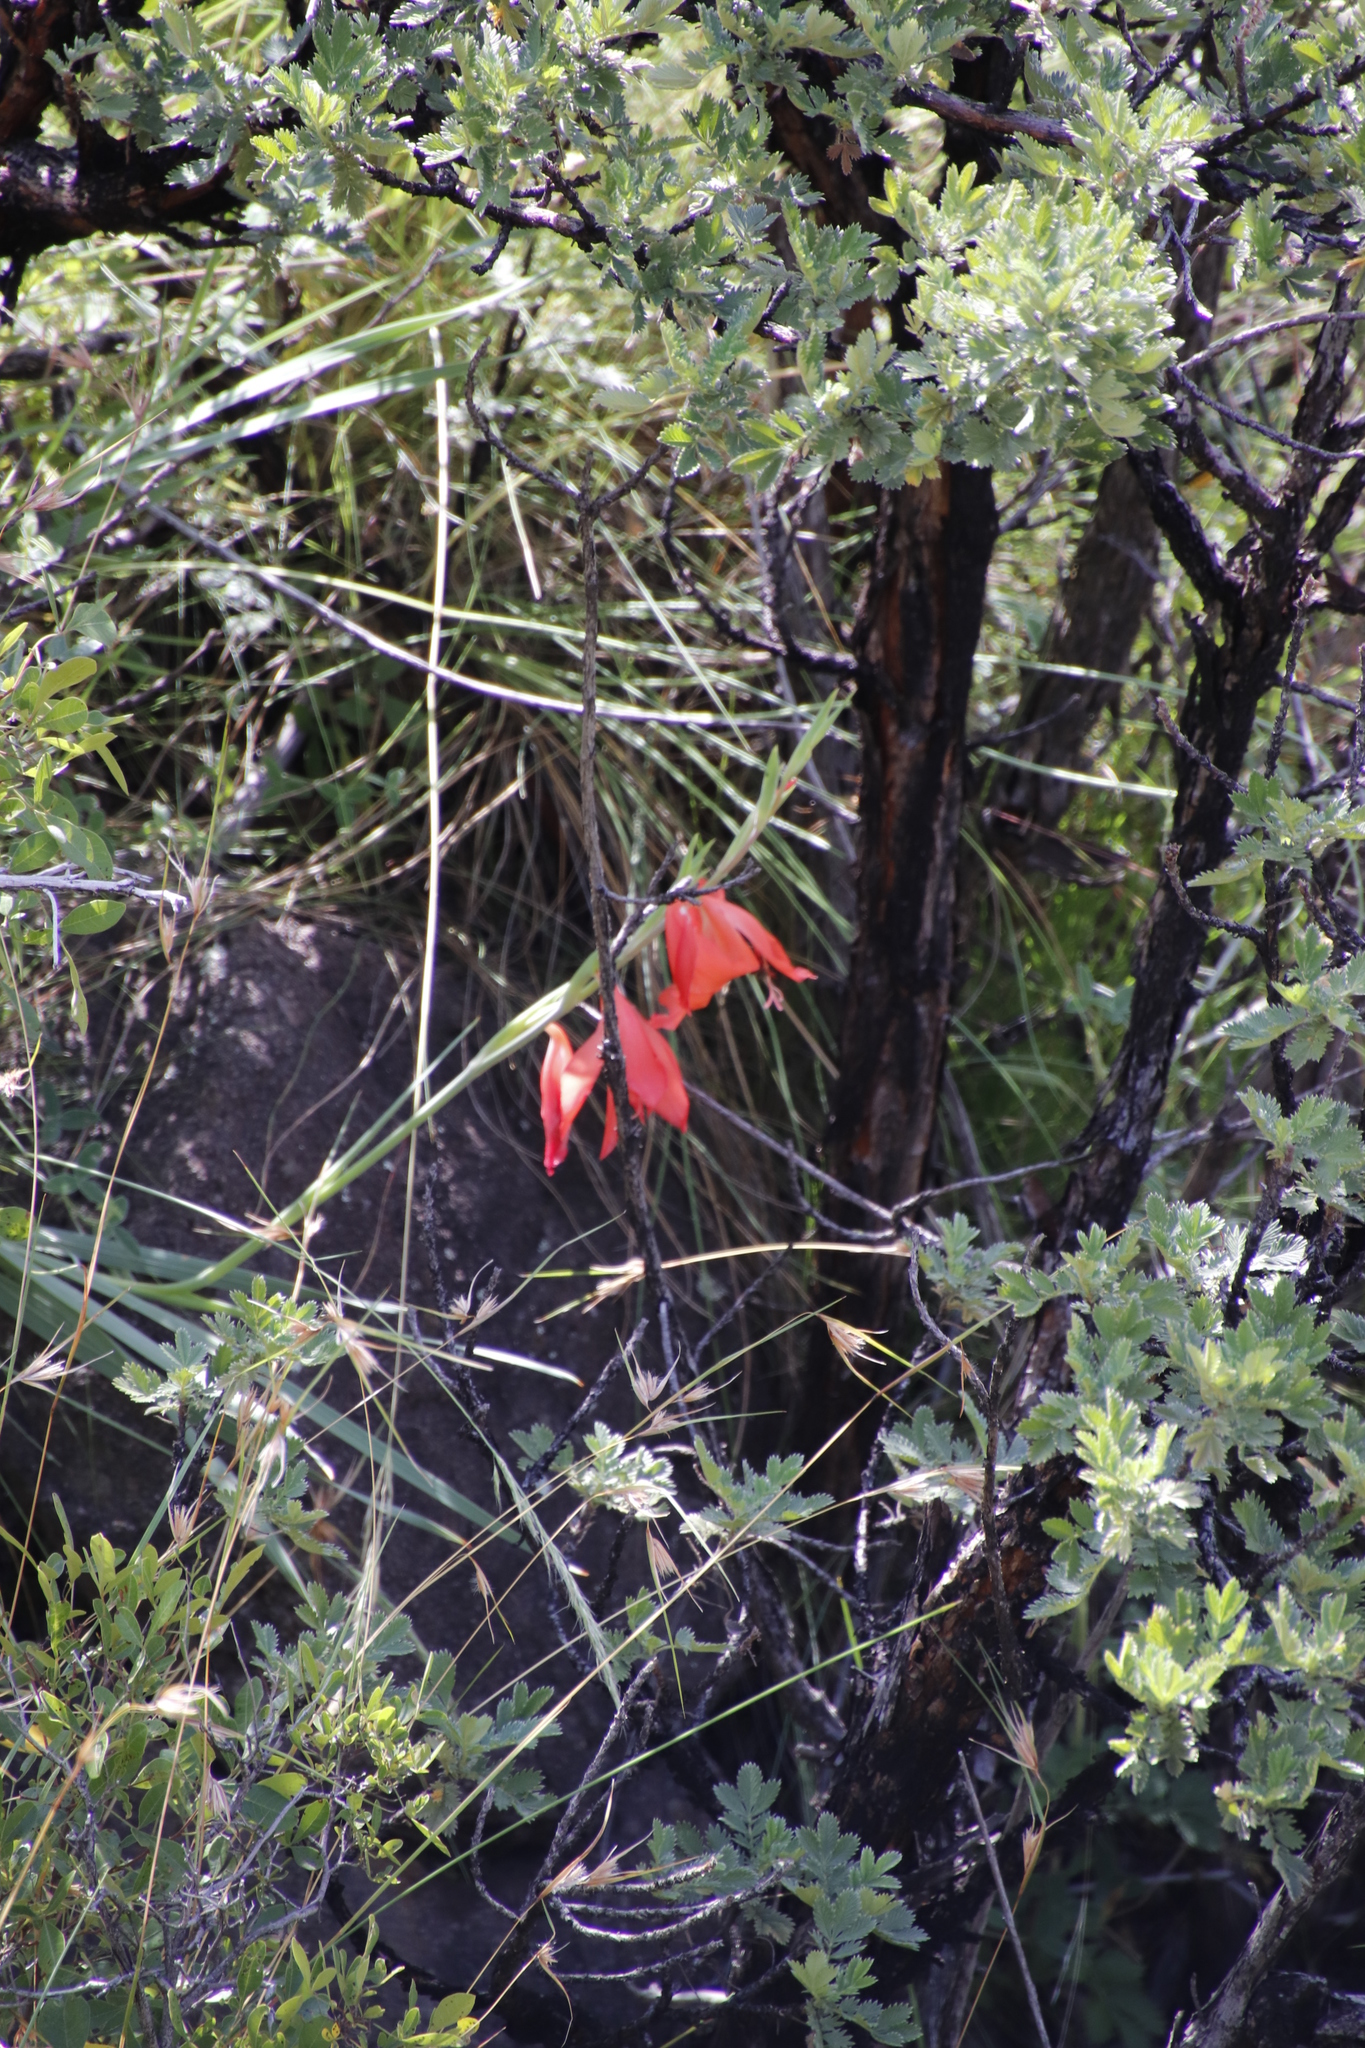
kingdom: Plantae
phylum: Tracheophyta
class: Liliopsida
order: Asparagales
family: Iridaceae
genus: Gladiolus
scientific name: Gladiolus saundersii
